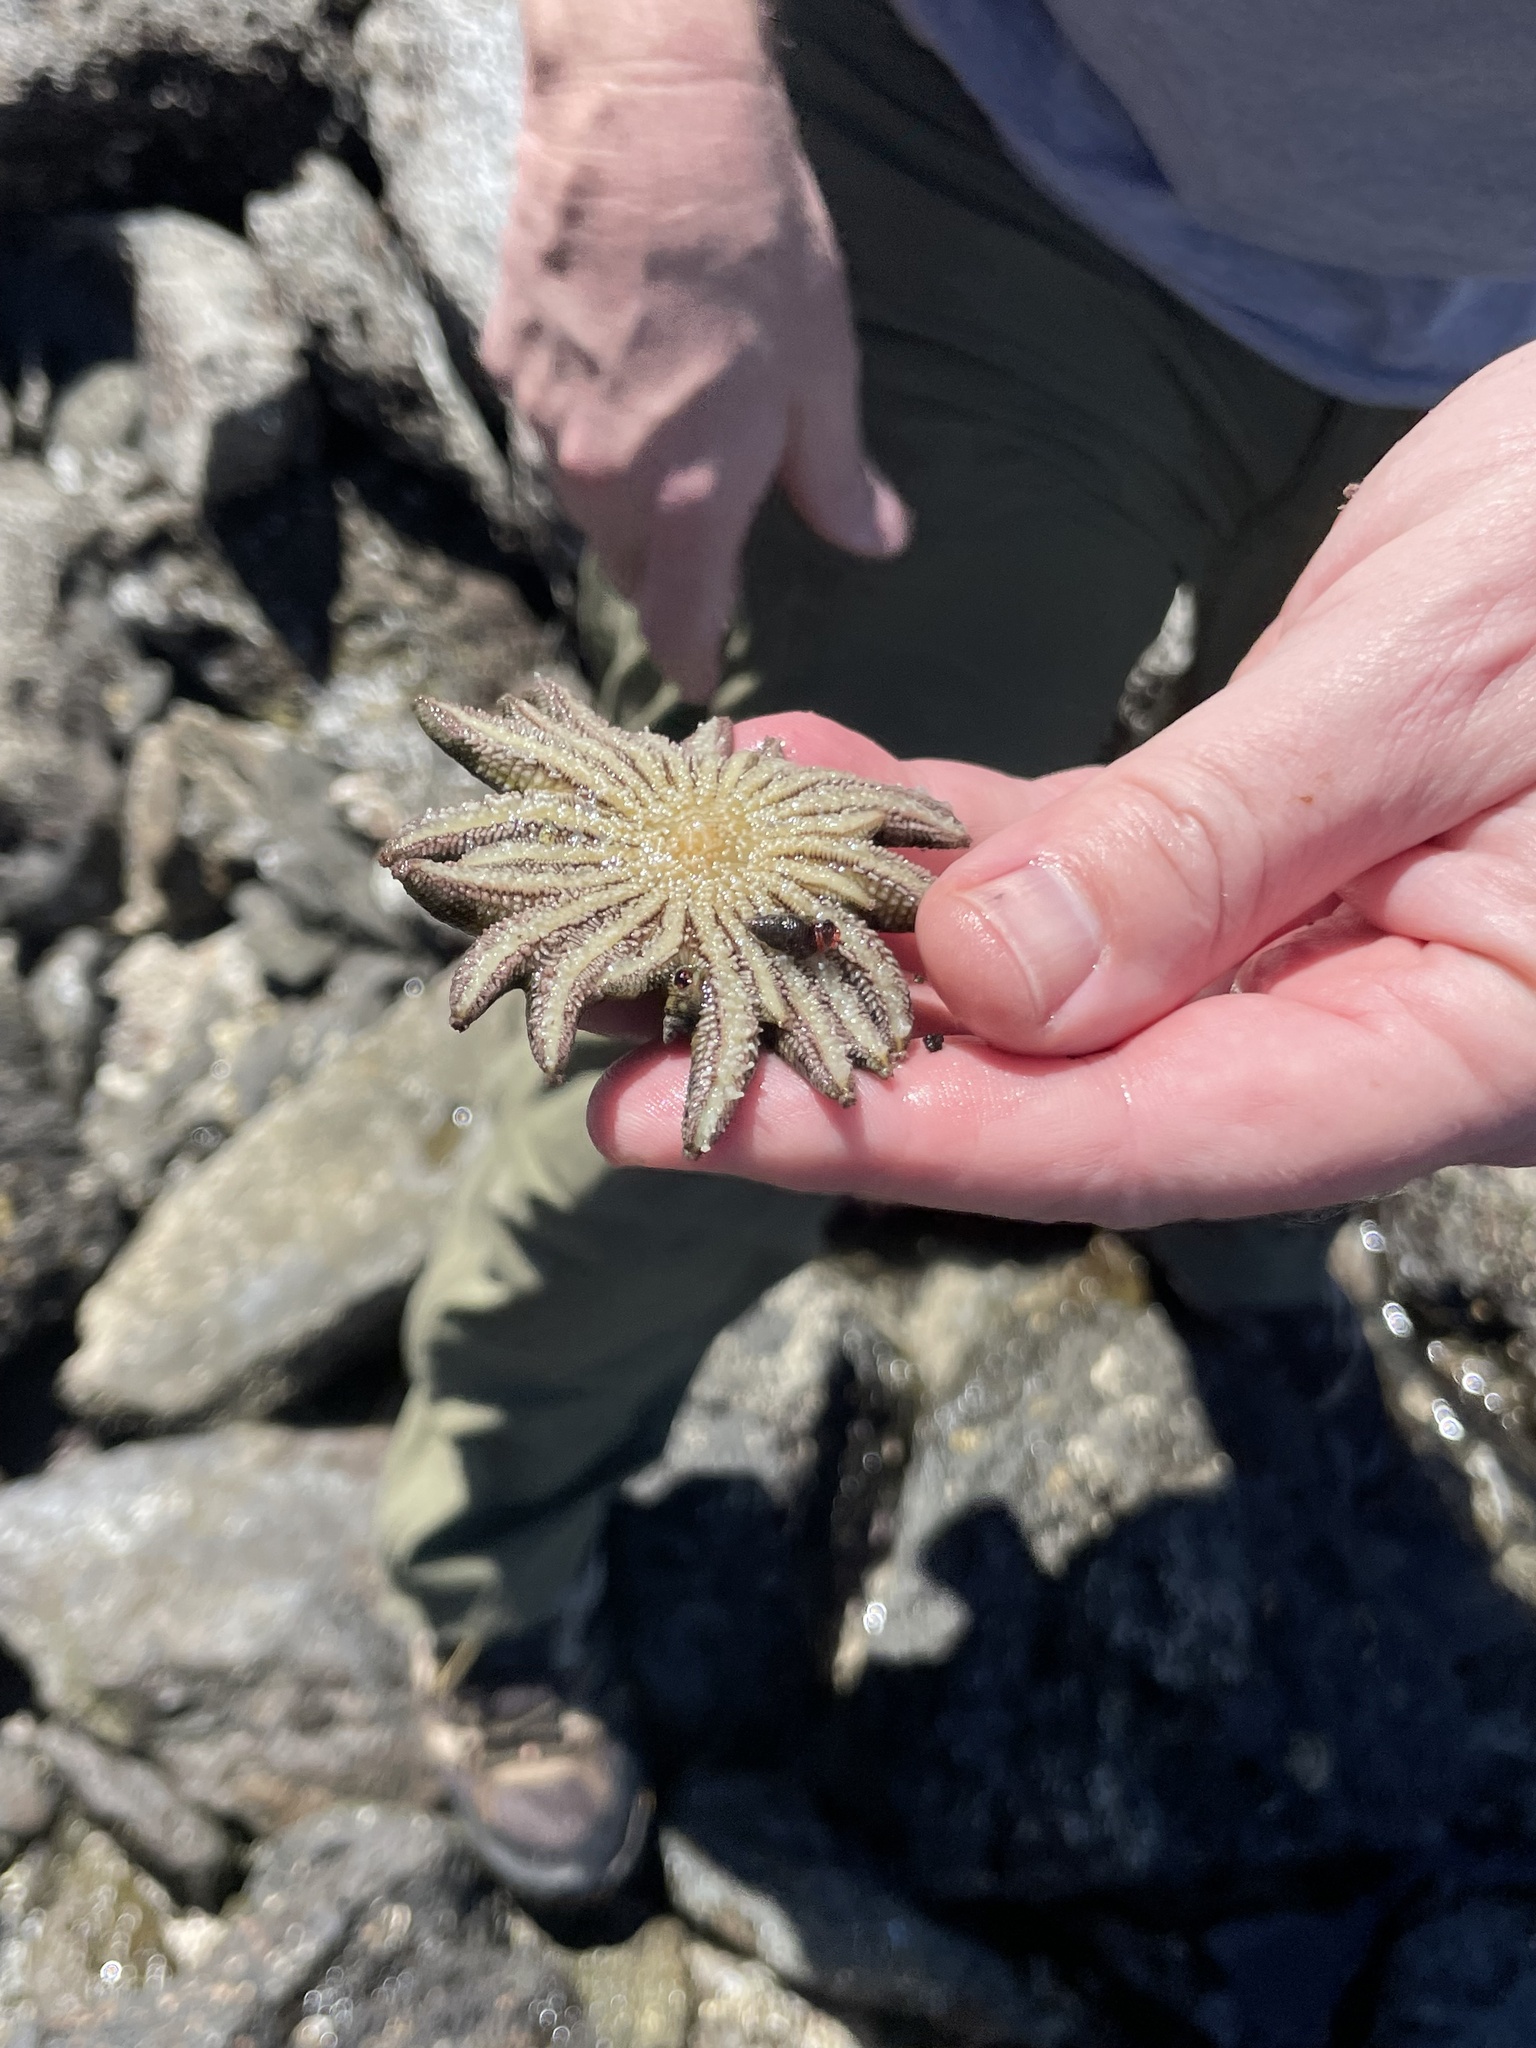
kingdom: Animalia
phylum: Echinodermata
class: Asteroidea
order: Forcipulatida
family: Heliasteridae
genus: Heliaster
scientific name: Heliaster kubiniji
